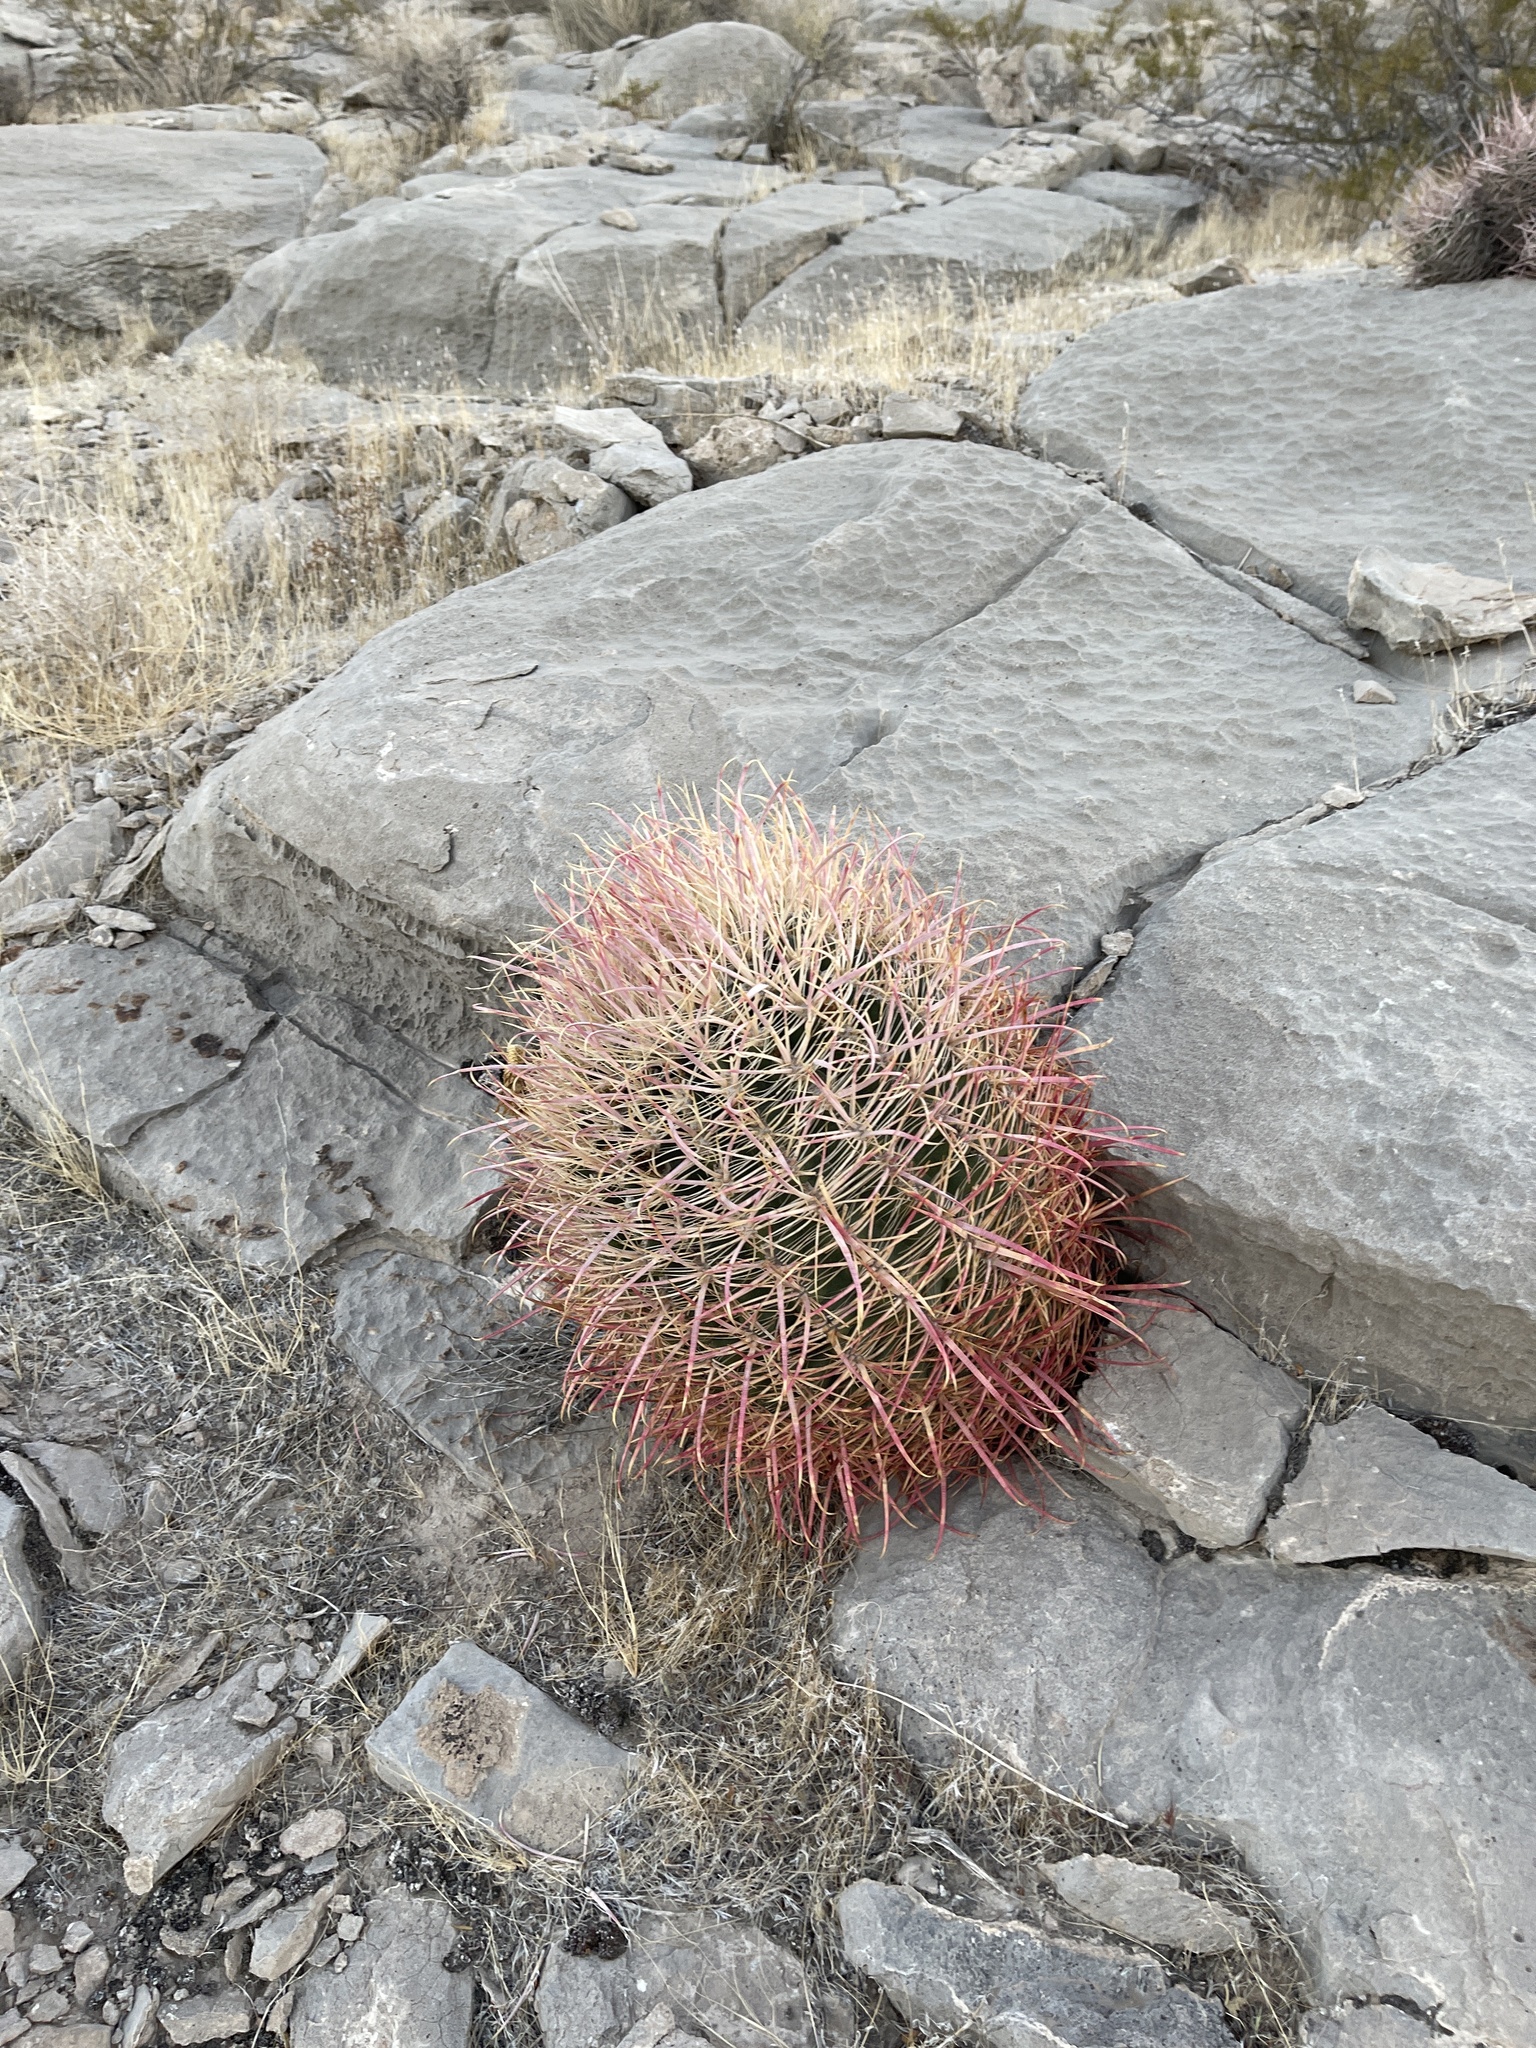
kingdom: Plantae
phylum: Tracheophyta
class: Magnoliopsida
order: Caryophyllales
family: Cactaceae
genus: Ferocactus
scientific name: Ferocactus cylindraceus
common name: California barrel cactus
